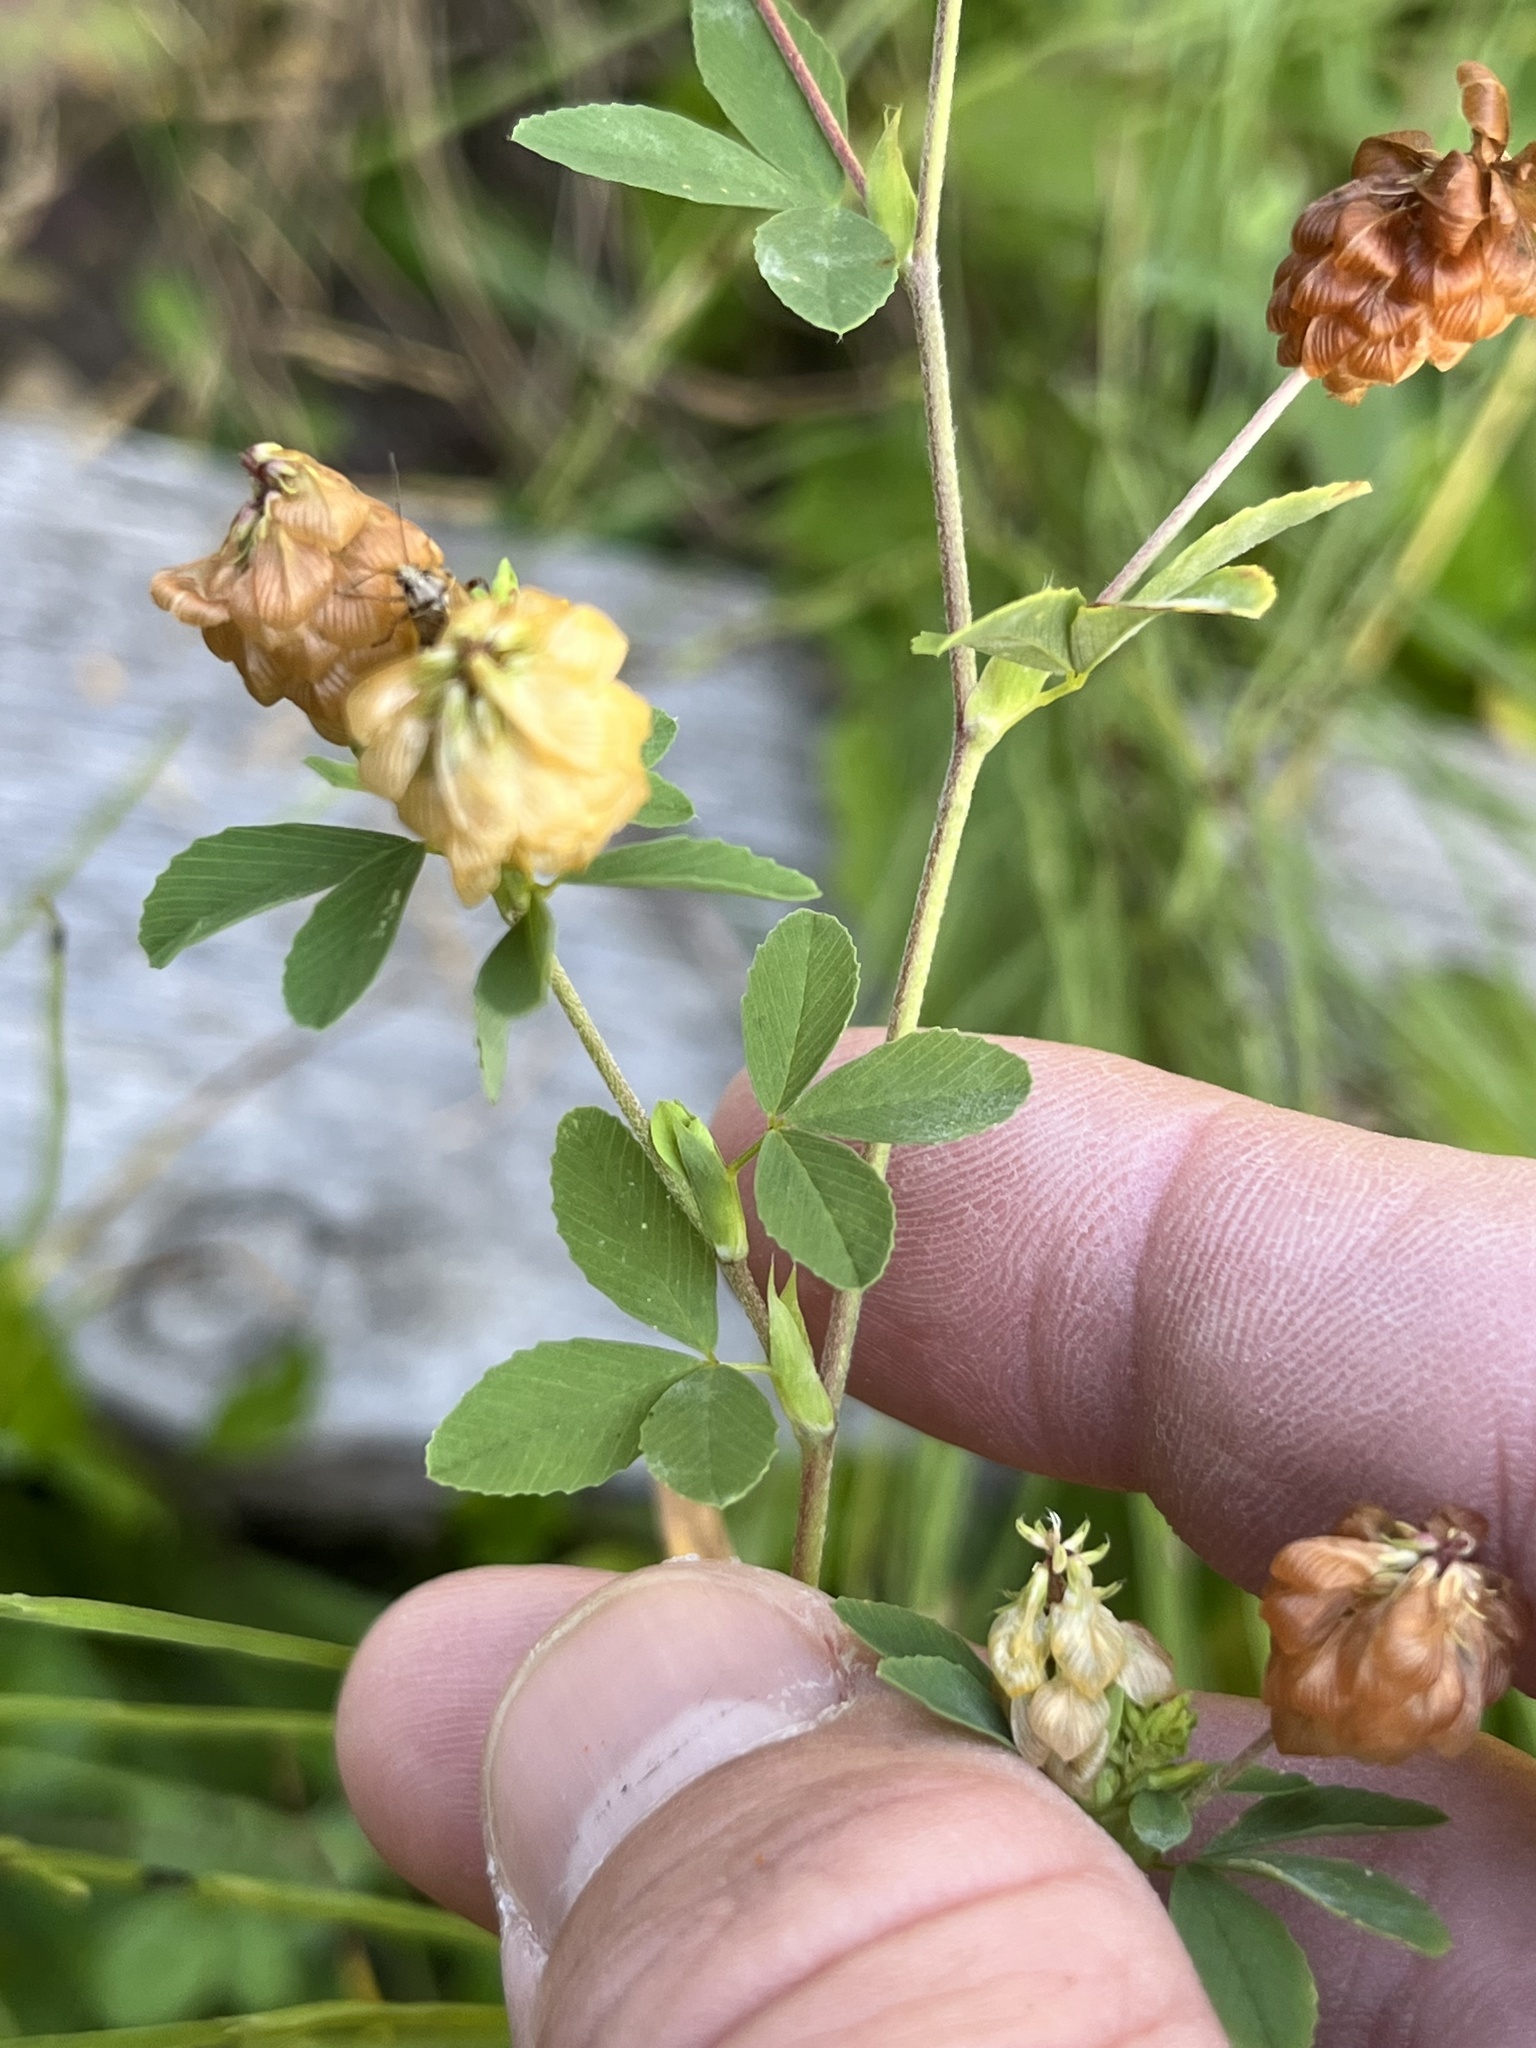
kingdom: Plantae
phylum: Tracheophyta
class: Magnoliopsida
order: Fabales
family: Fabaceae
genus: Trifolium
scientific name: Trifolium aureum
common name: Golden clover
